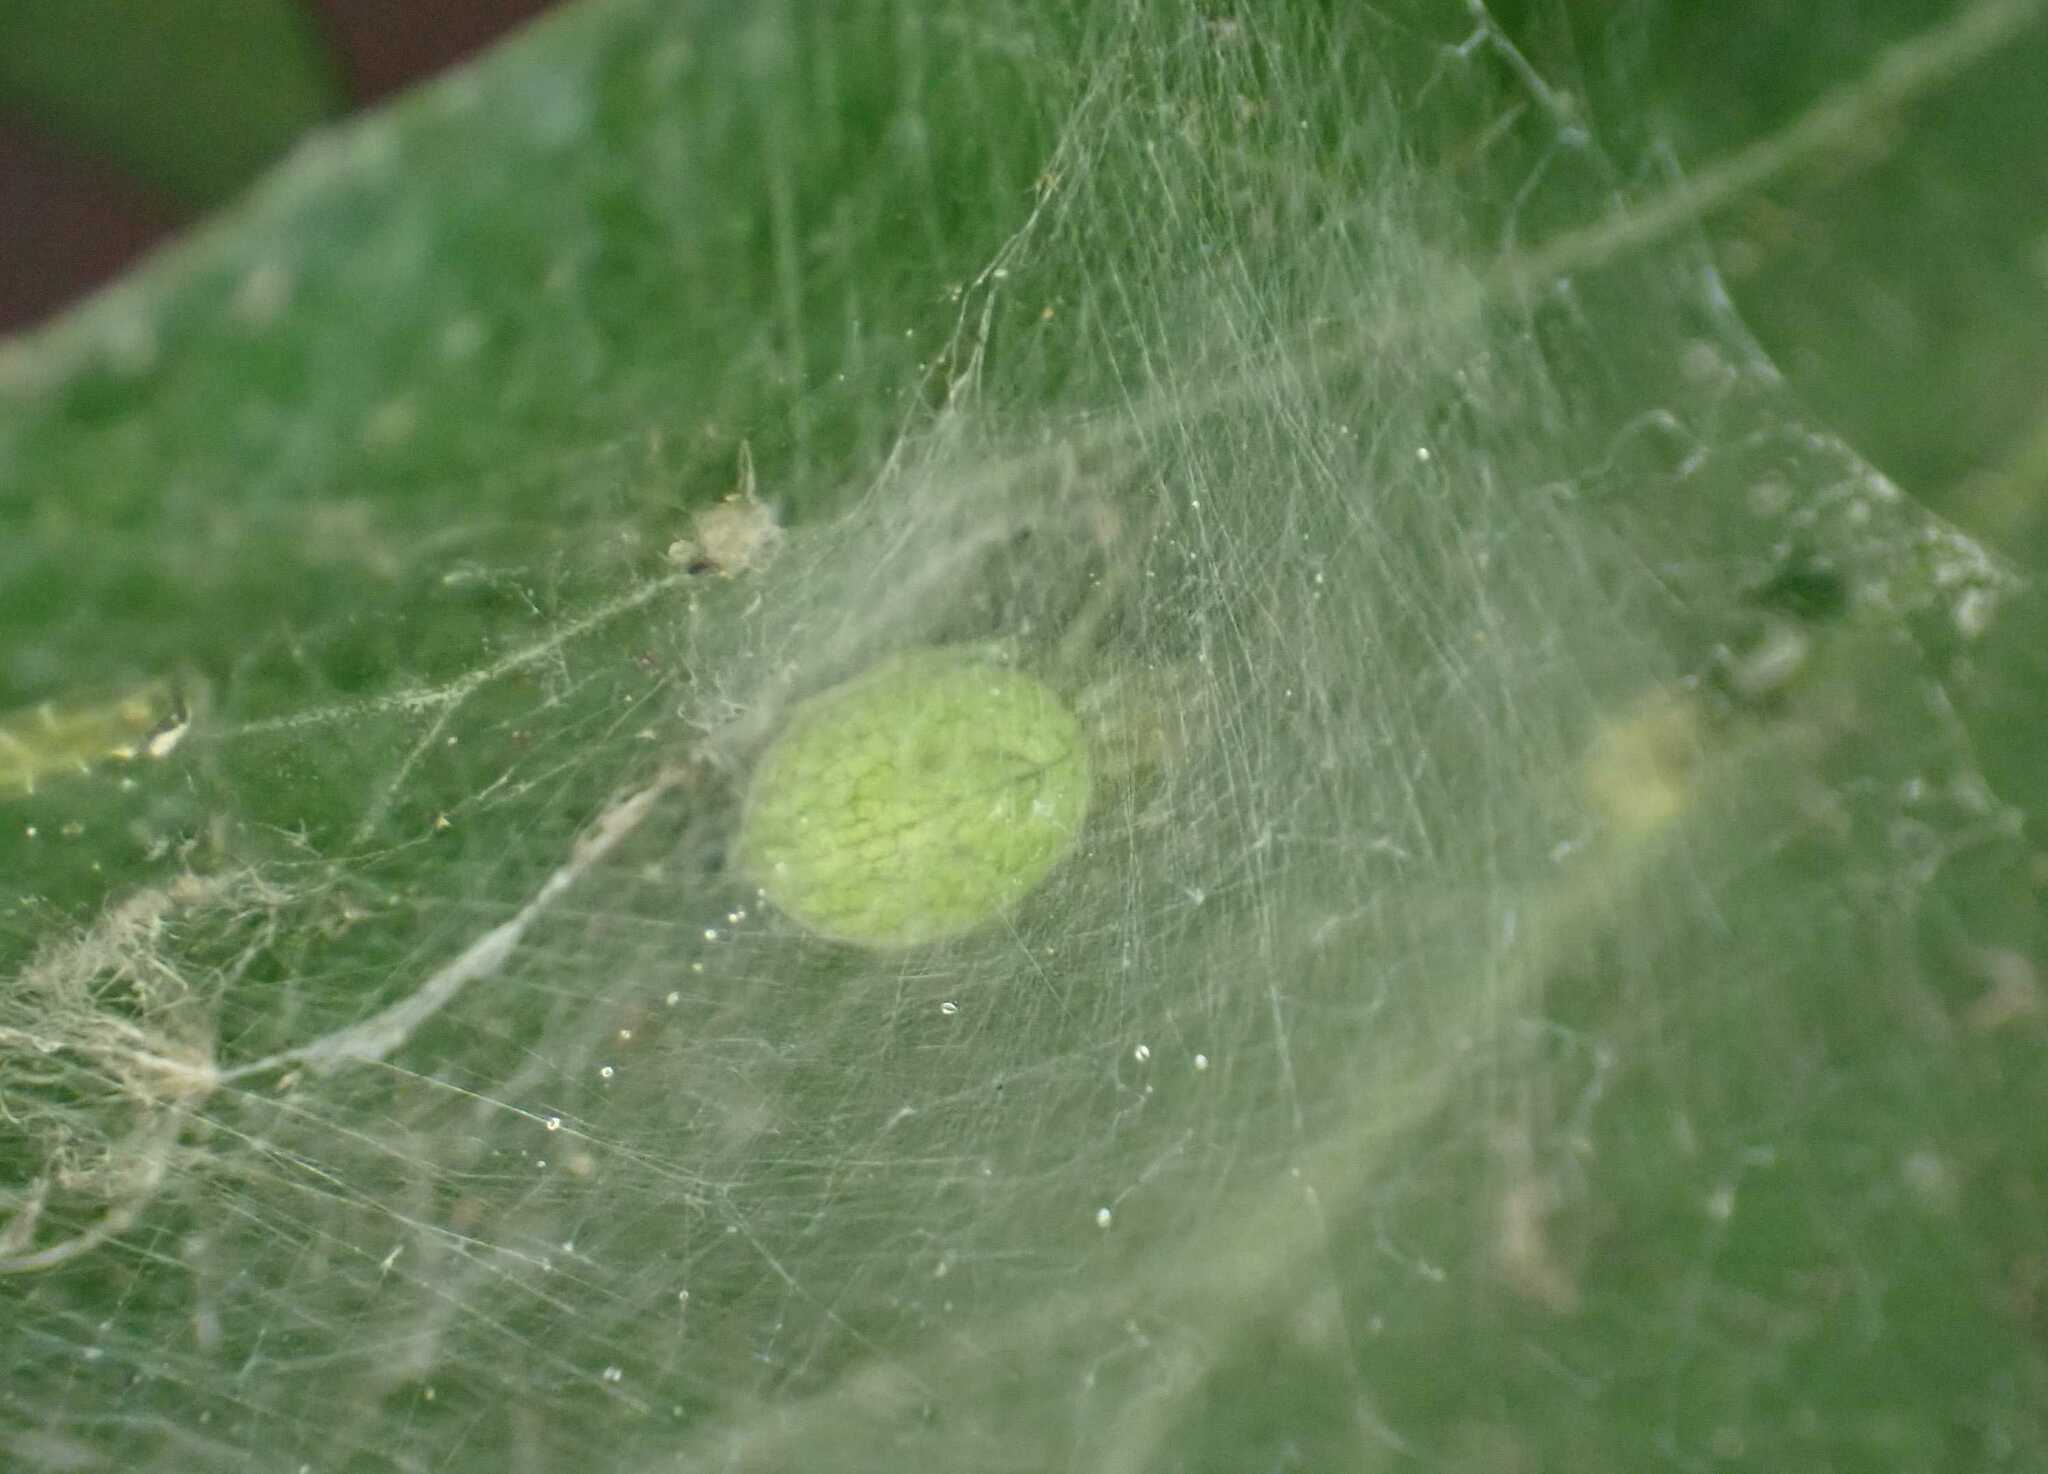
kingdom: Animalia
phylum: Arthropoda
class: Arachnida
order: Araneae
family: Dictynidae
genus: Nigma
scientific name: Nigma walckenaeri
